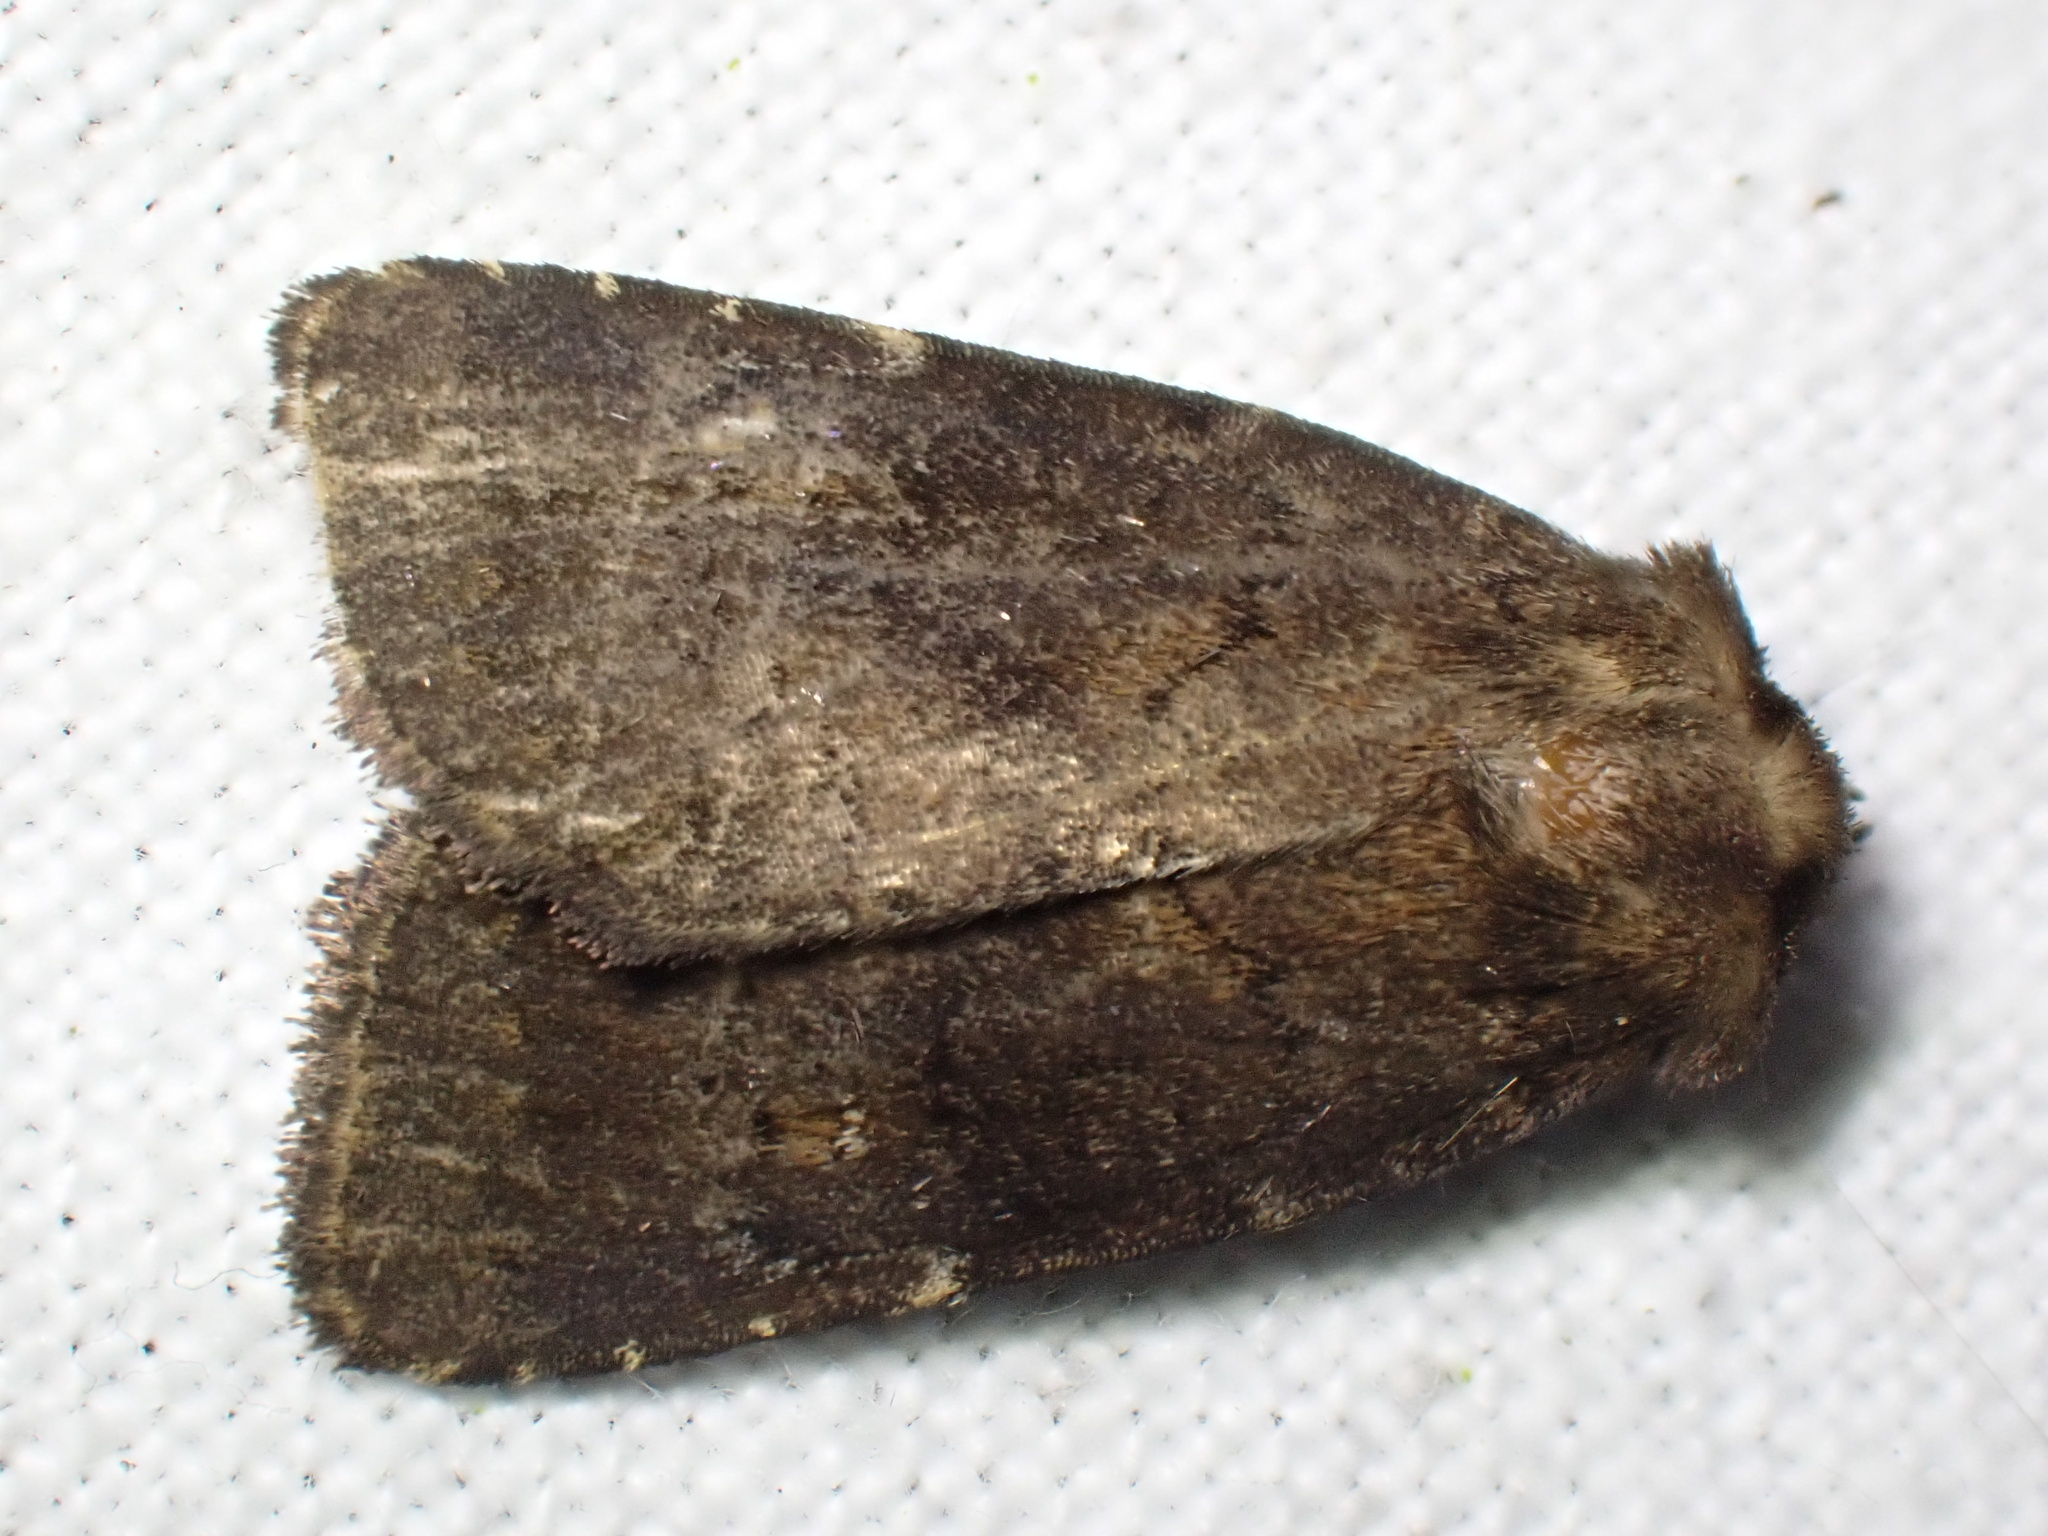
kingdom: Animalia
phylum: Arthropoda
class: Insecta
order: Lepidoptera
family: Noctuidae
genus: Charanyca
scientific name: Charanyca ferruginea
